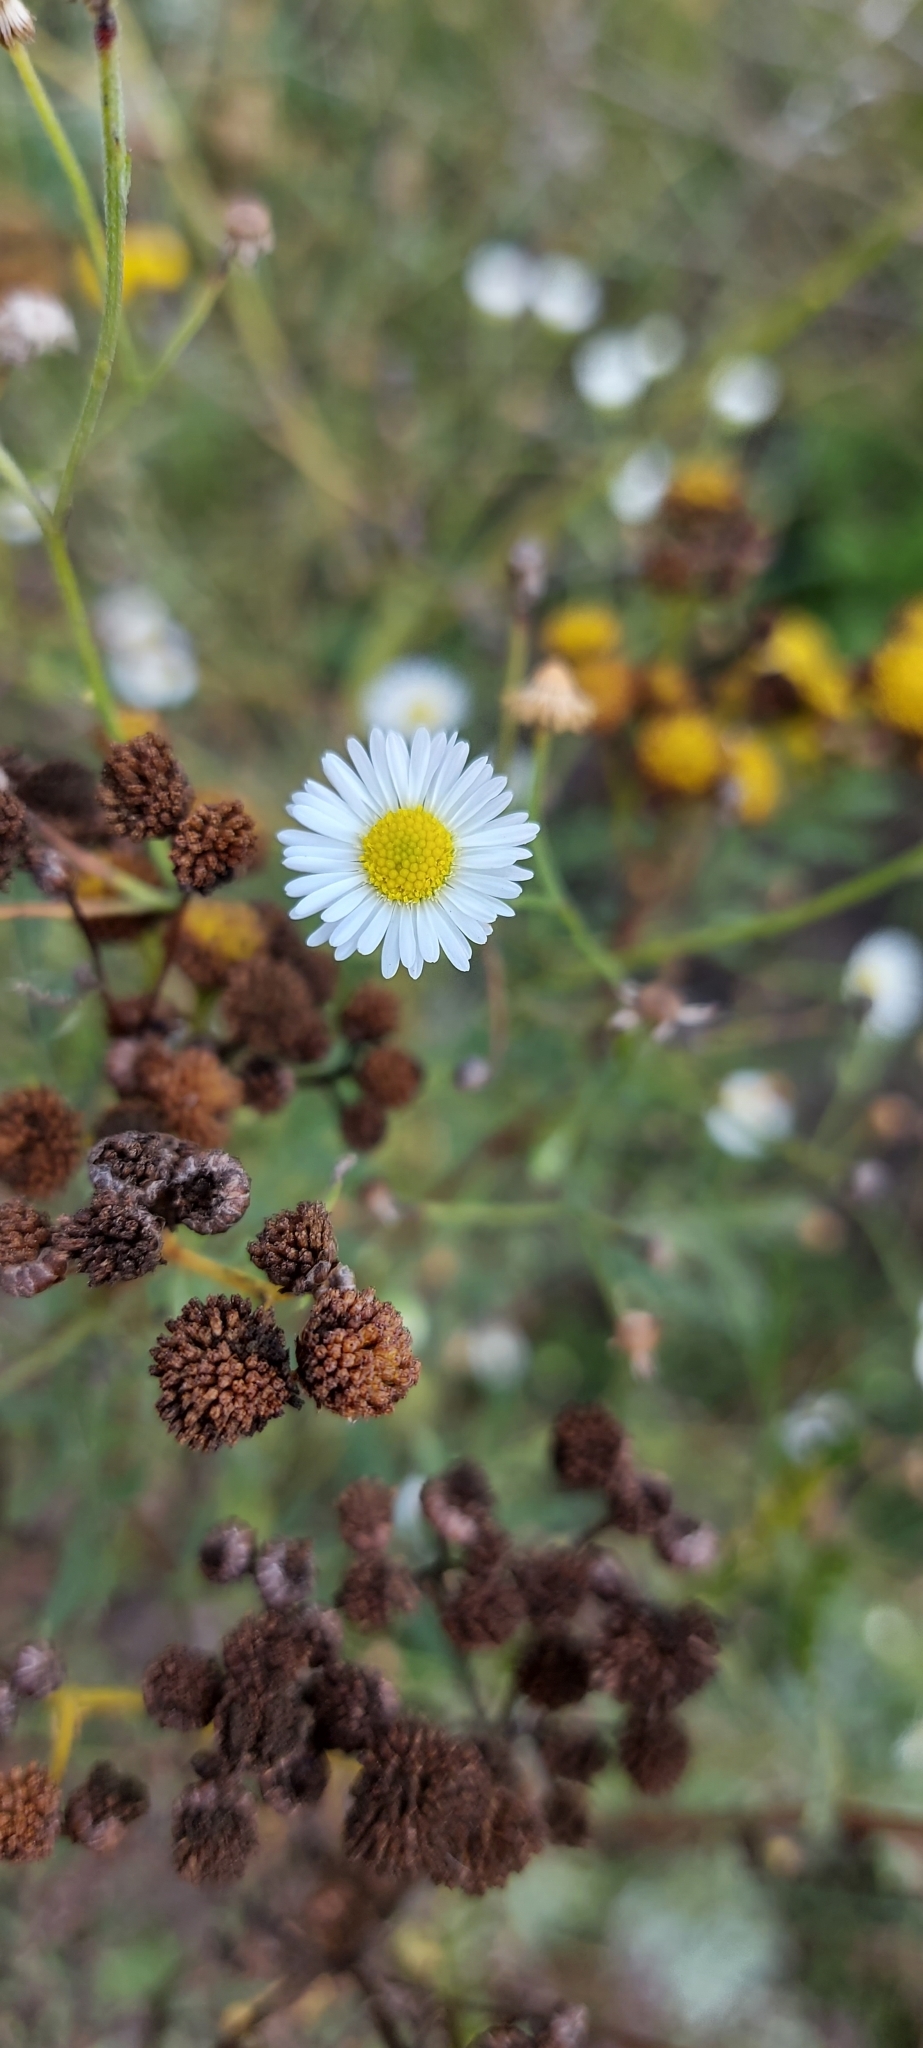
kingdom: Plantae
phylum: Tracheophyta
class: Magnoliopsida
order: Asterales
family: Asteraceae
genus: Erigeron
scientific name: Erigeron strigosus
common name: Common eastern fleabane
